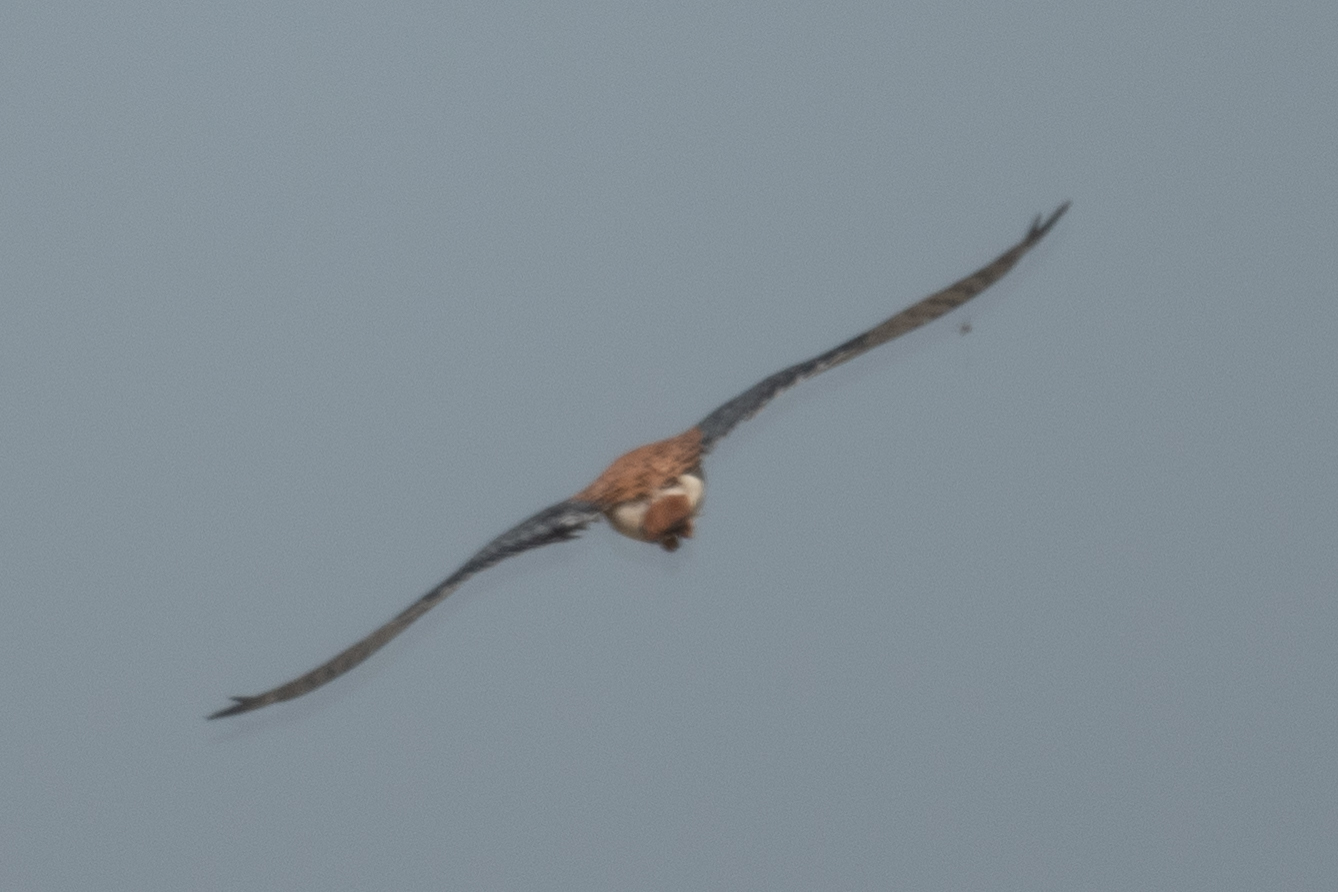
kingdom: Animalia
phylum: Chordata
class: Aves
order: Falconiformes
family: Falconidae
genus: Falco
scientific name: Falco sparverius
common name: American kestrel
